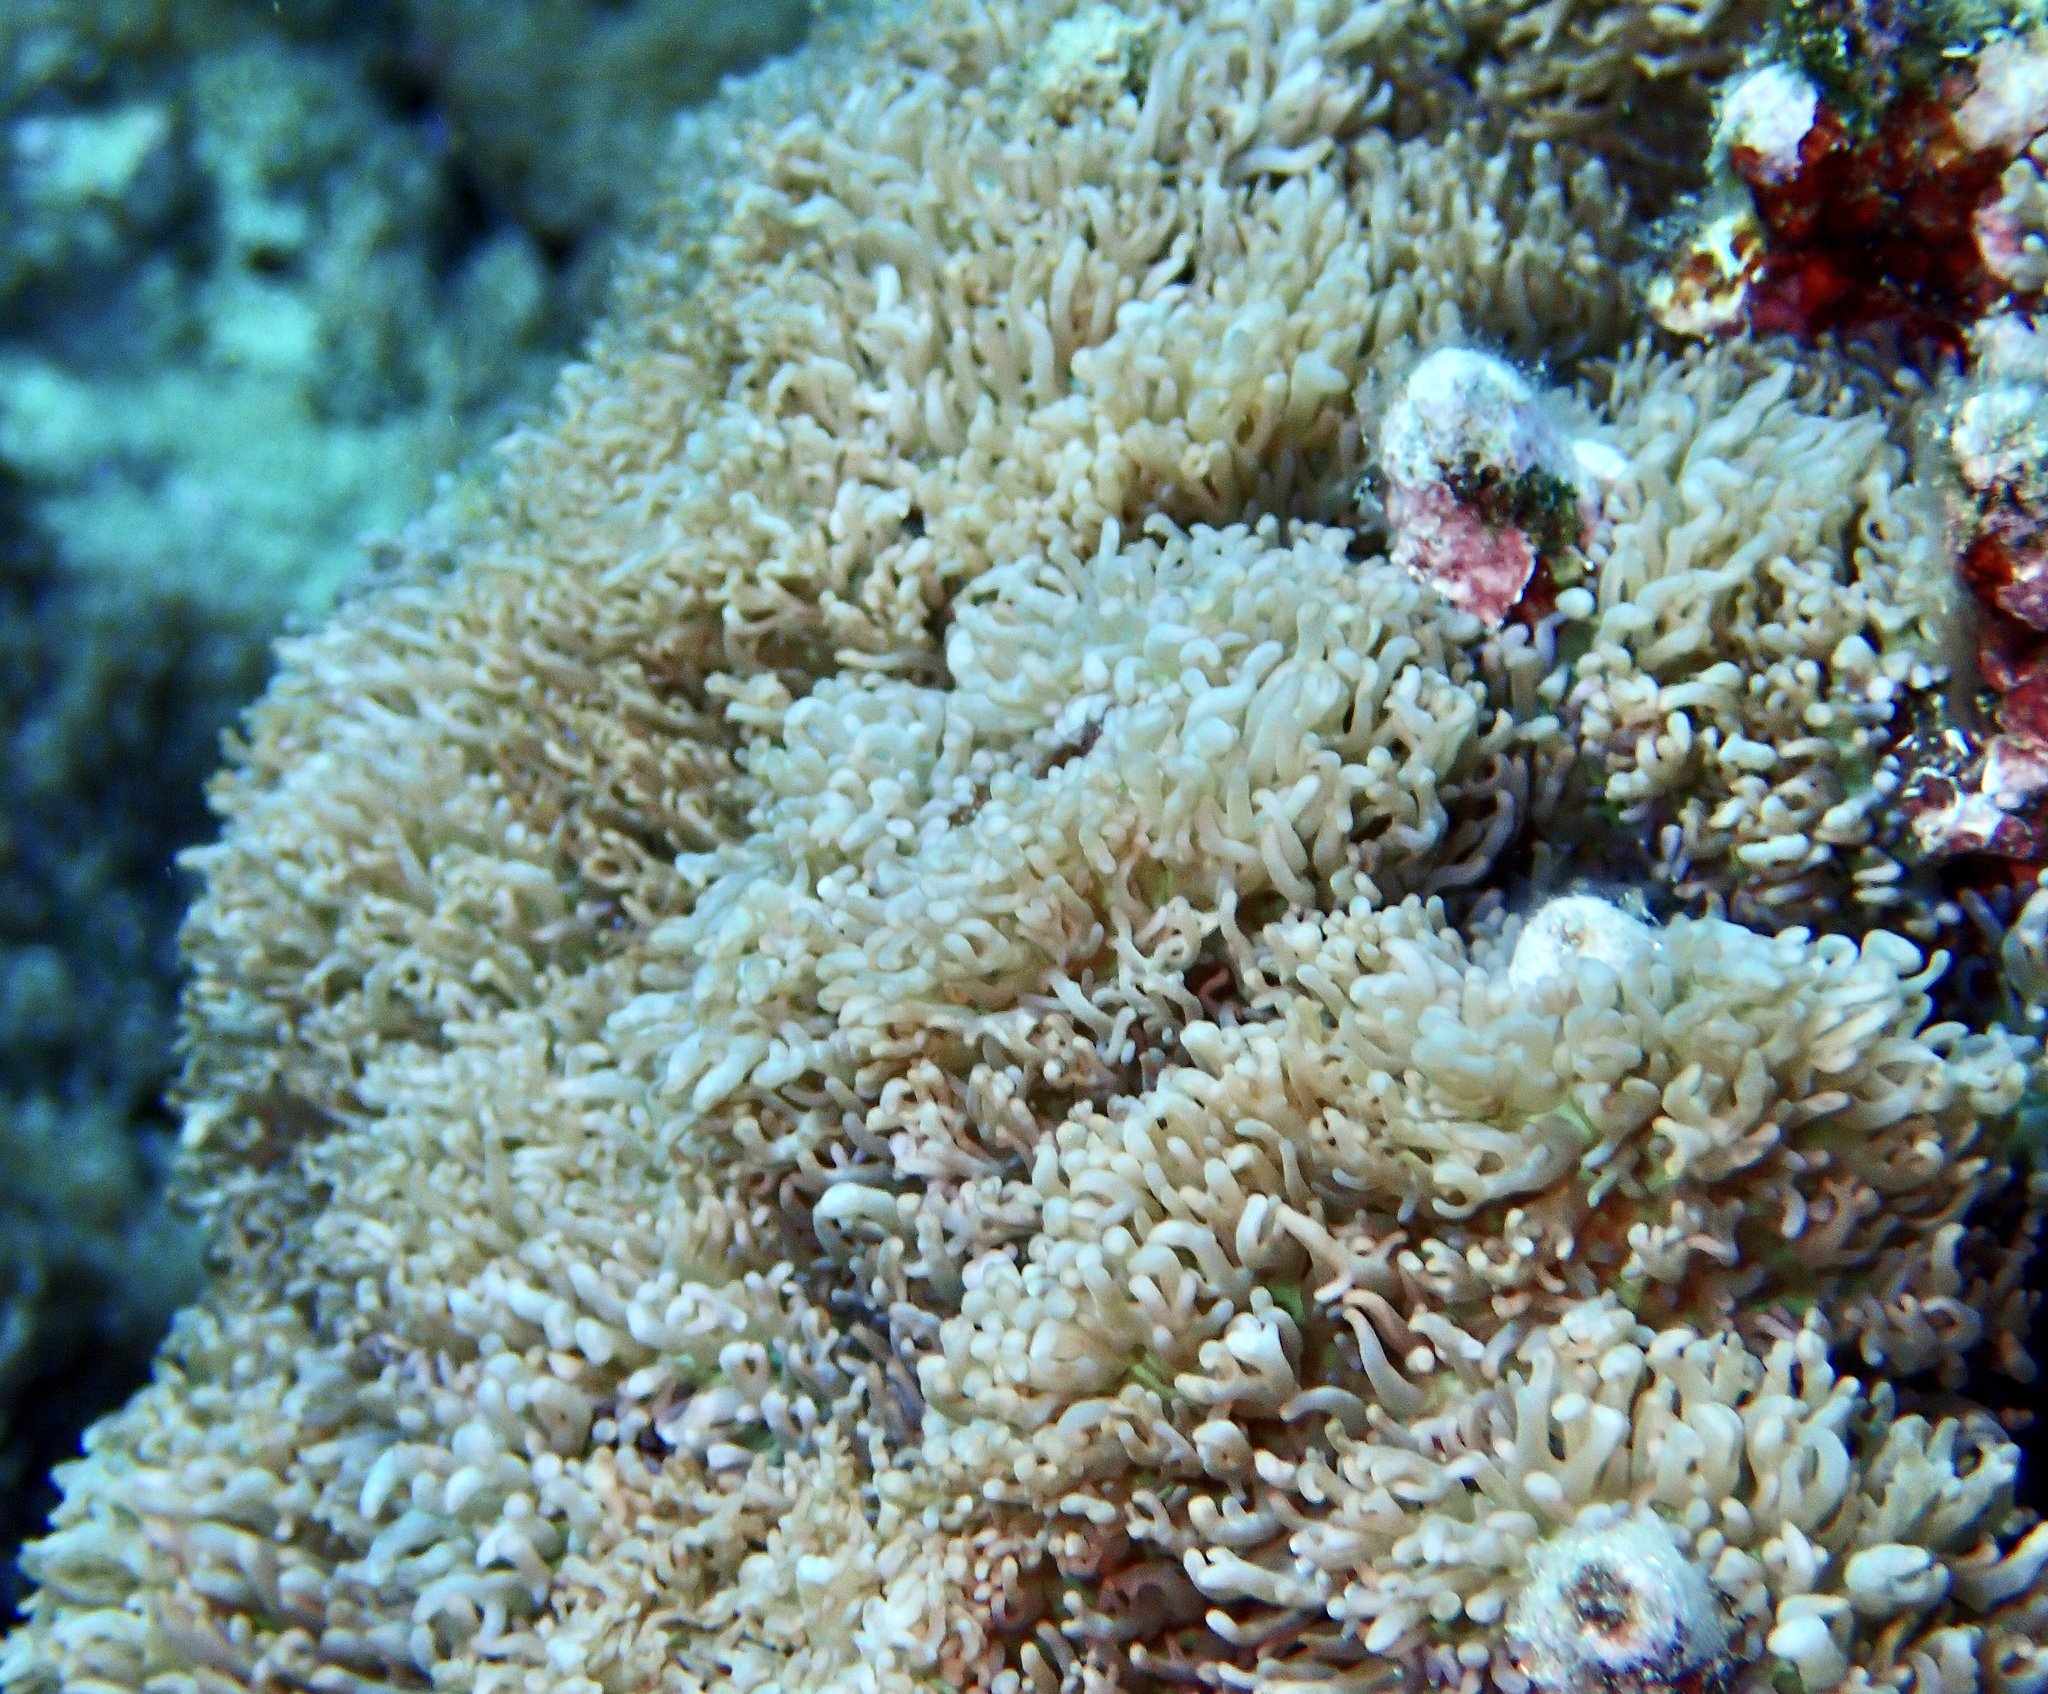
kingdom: Animalia
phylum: Cnidaria
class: Anthozoa
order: Corallimorpharia
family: Discosomidae
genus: Rhodactis
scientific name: Rhodactis rhodostoma
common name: Red-mouth mushroom anemone
